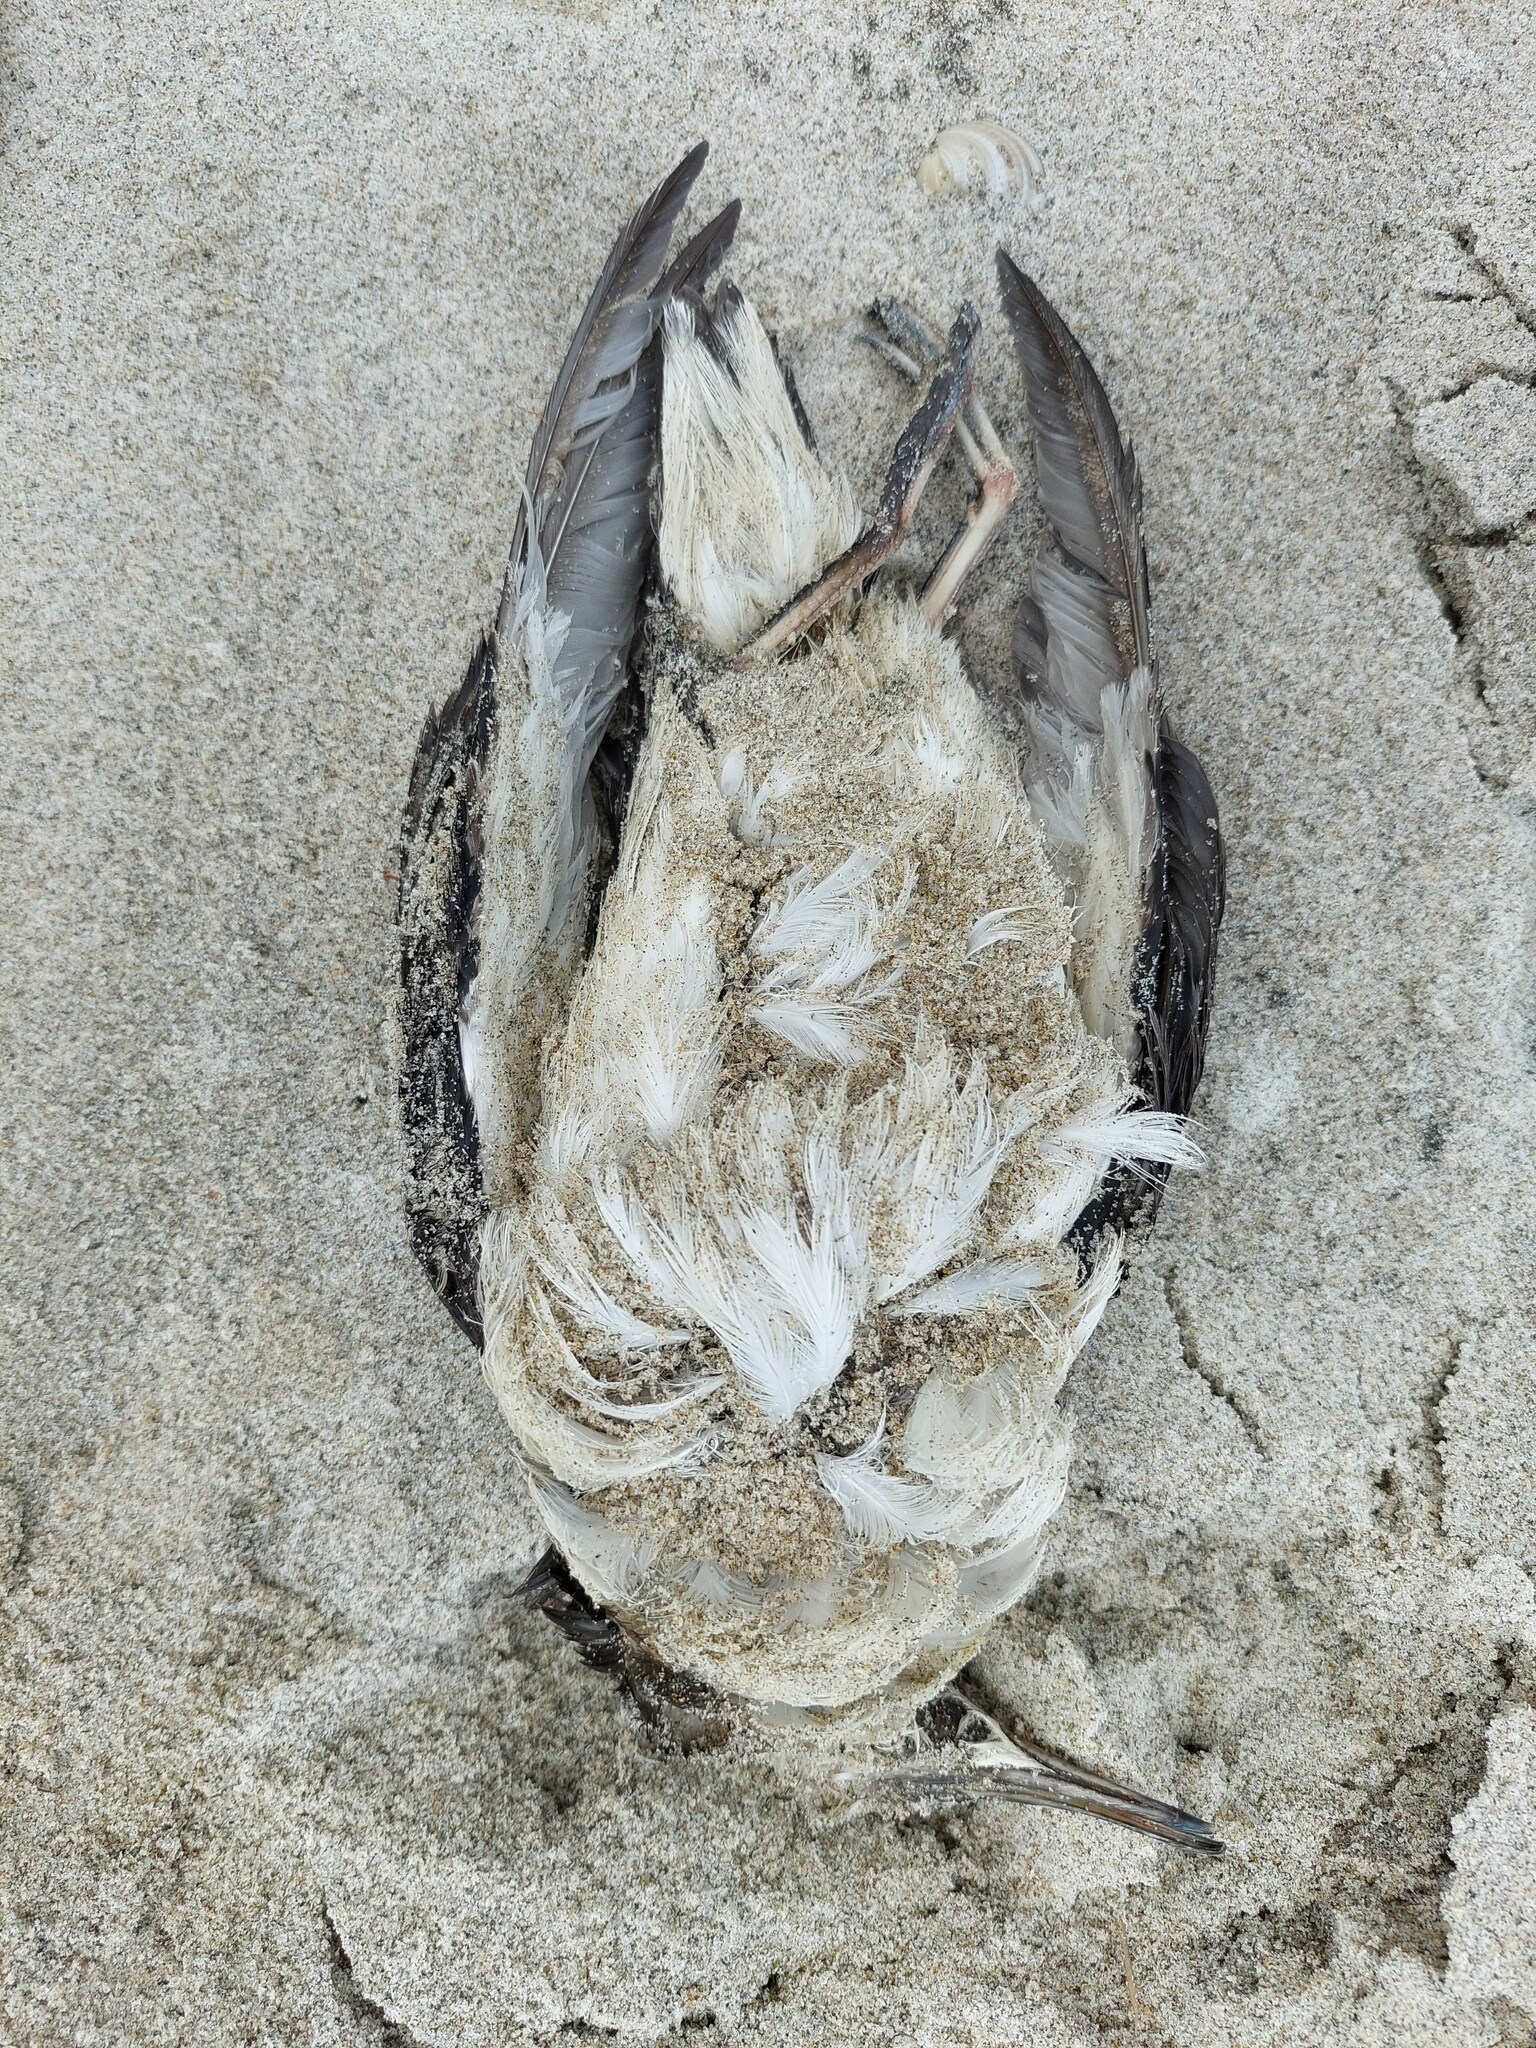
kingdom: Animalia
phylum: Chordata
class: Aves
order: Procellariiformes
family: Procellariidae
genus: Puffinus
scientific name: Puffinus gavia
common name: Fluttering shearwater
